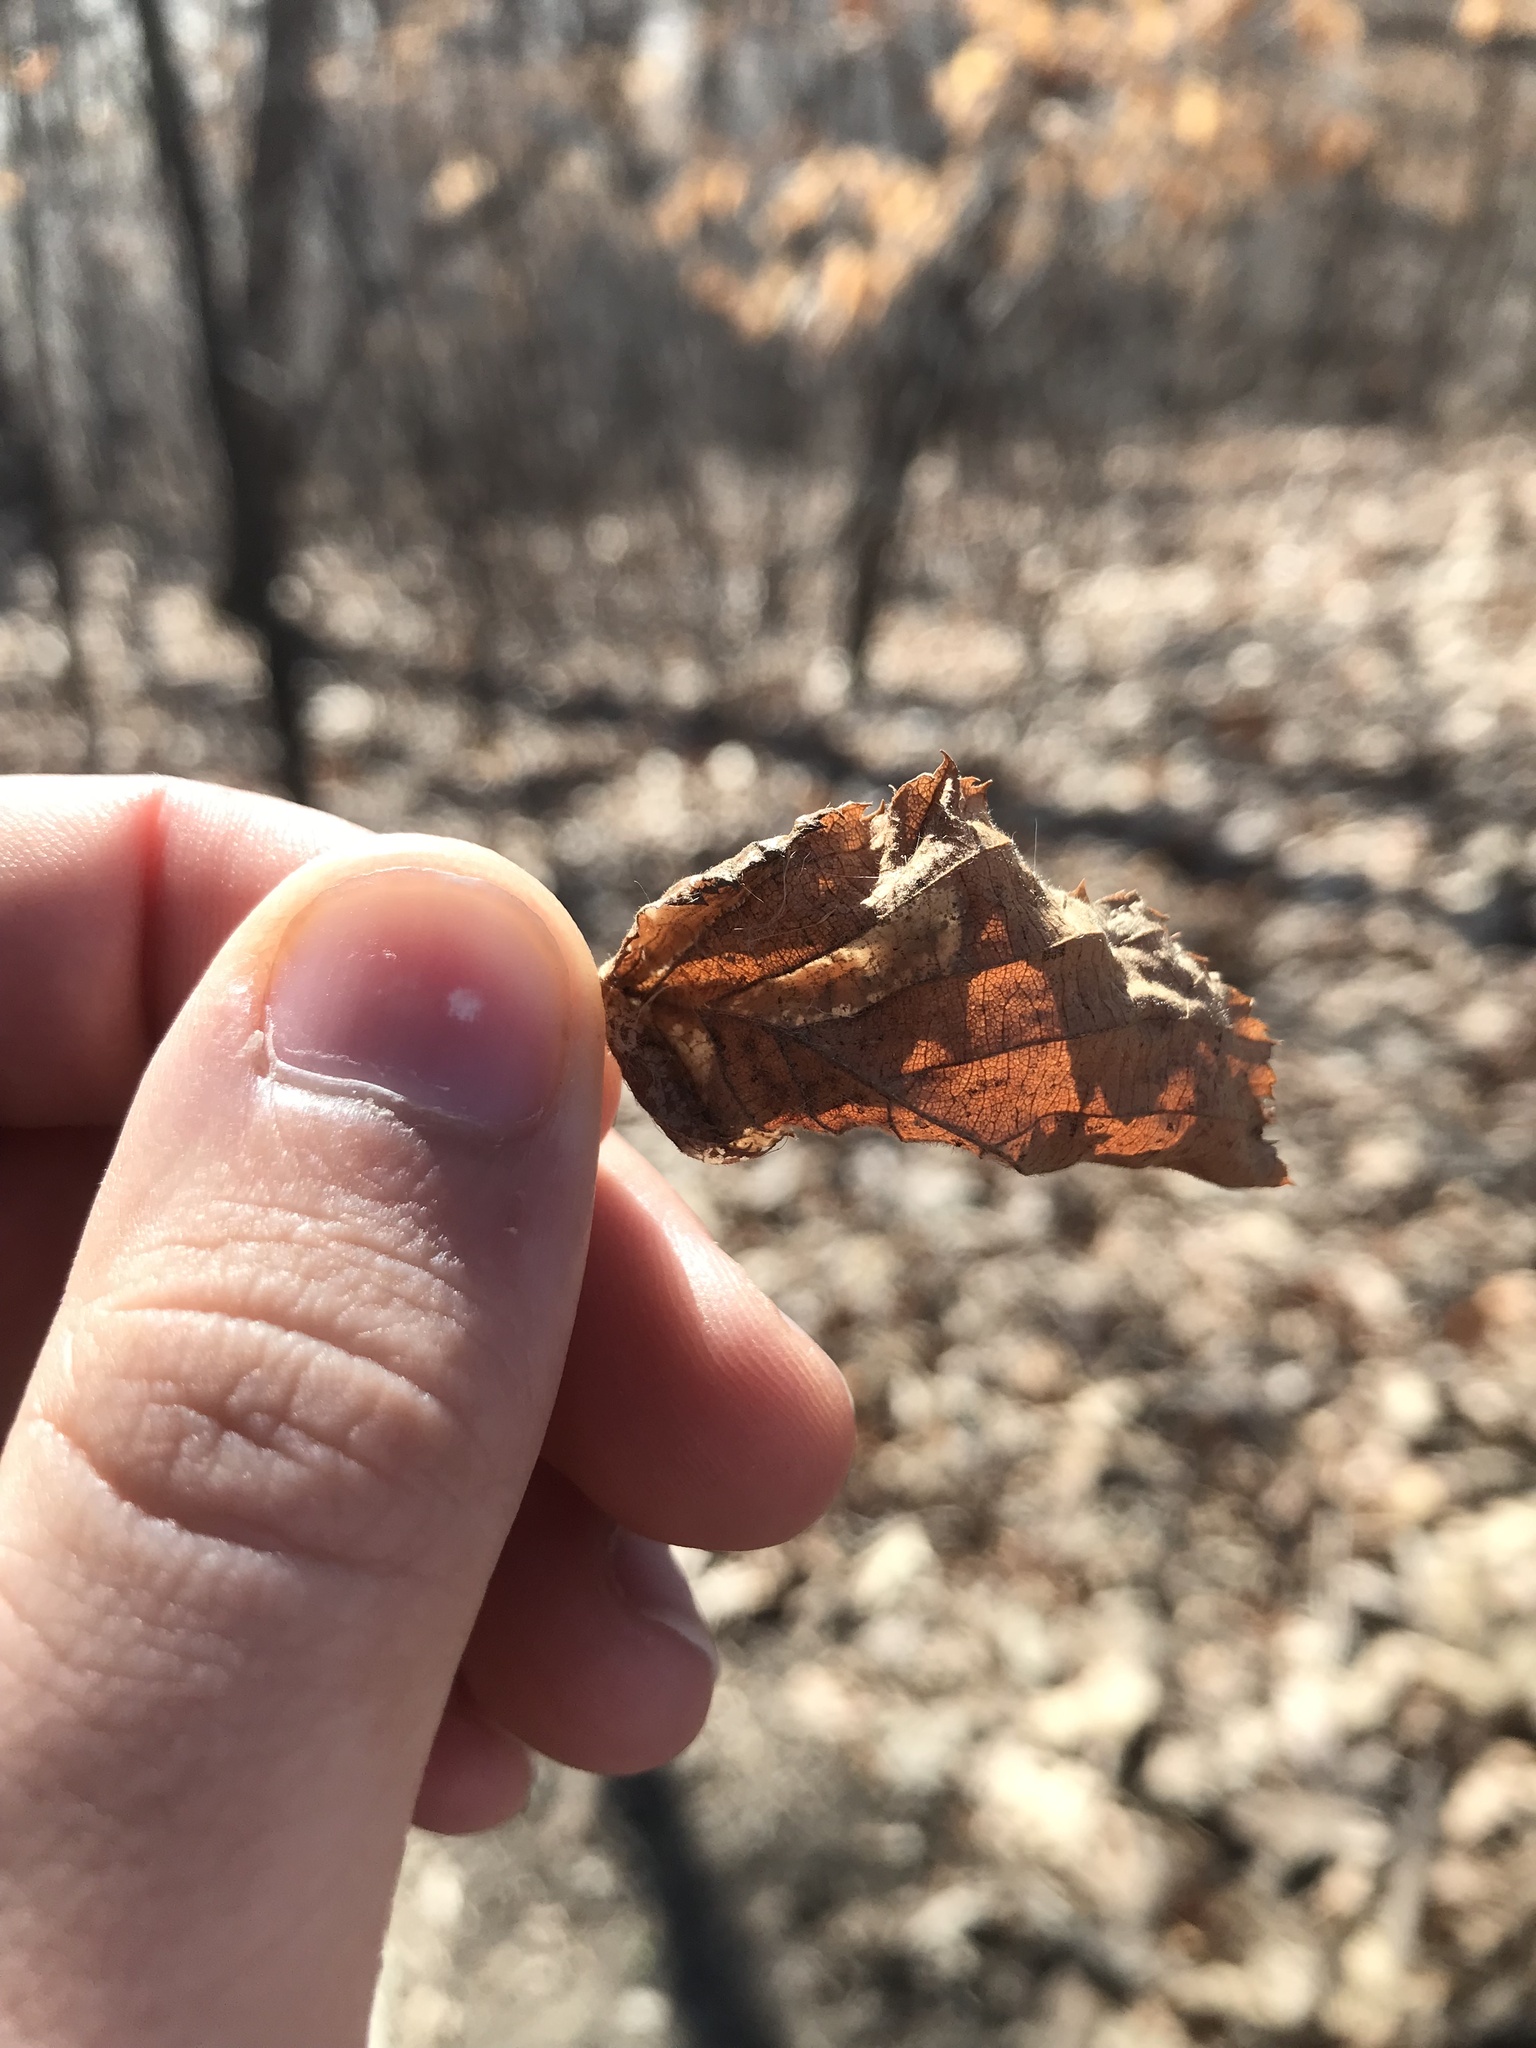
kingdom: Animalia
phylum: Arthropoda
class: Insecta
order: Lepidoptera
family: Gracillariidae
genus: Phyllonorycter
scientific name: Phyllonorycter obscuricostella
